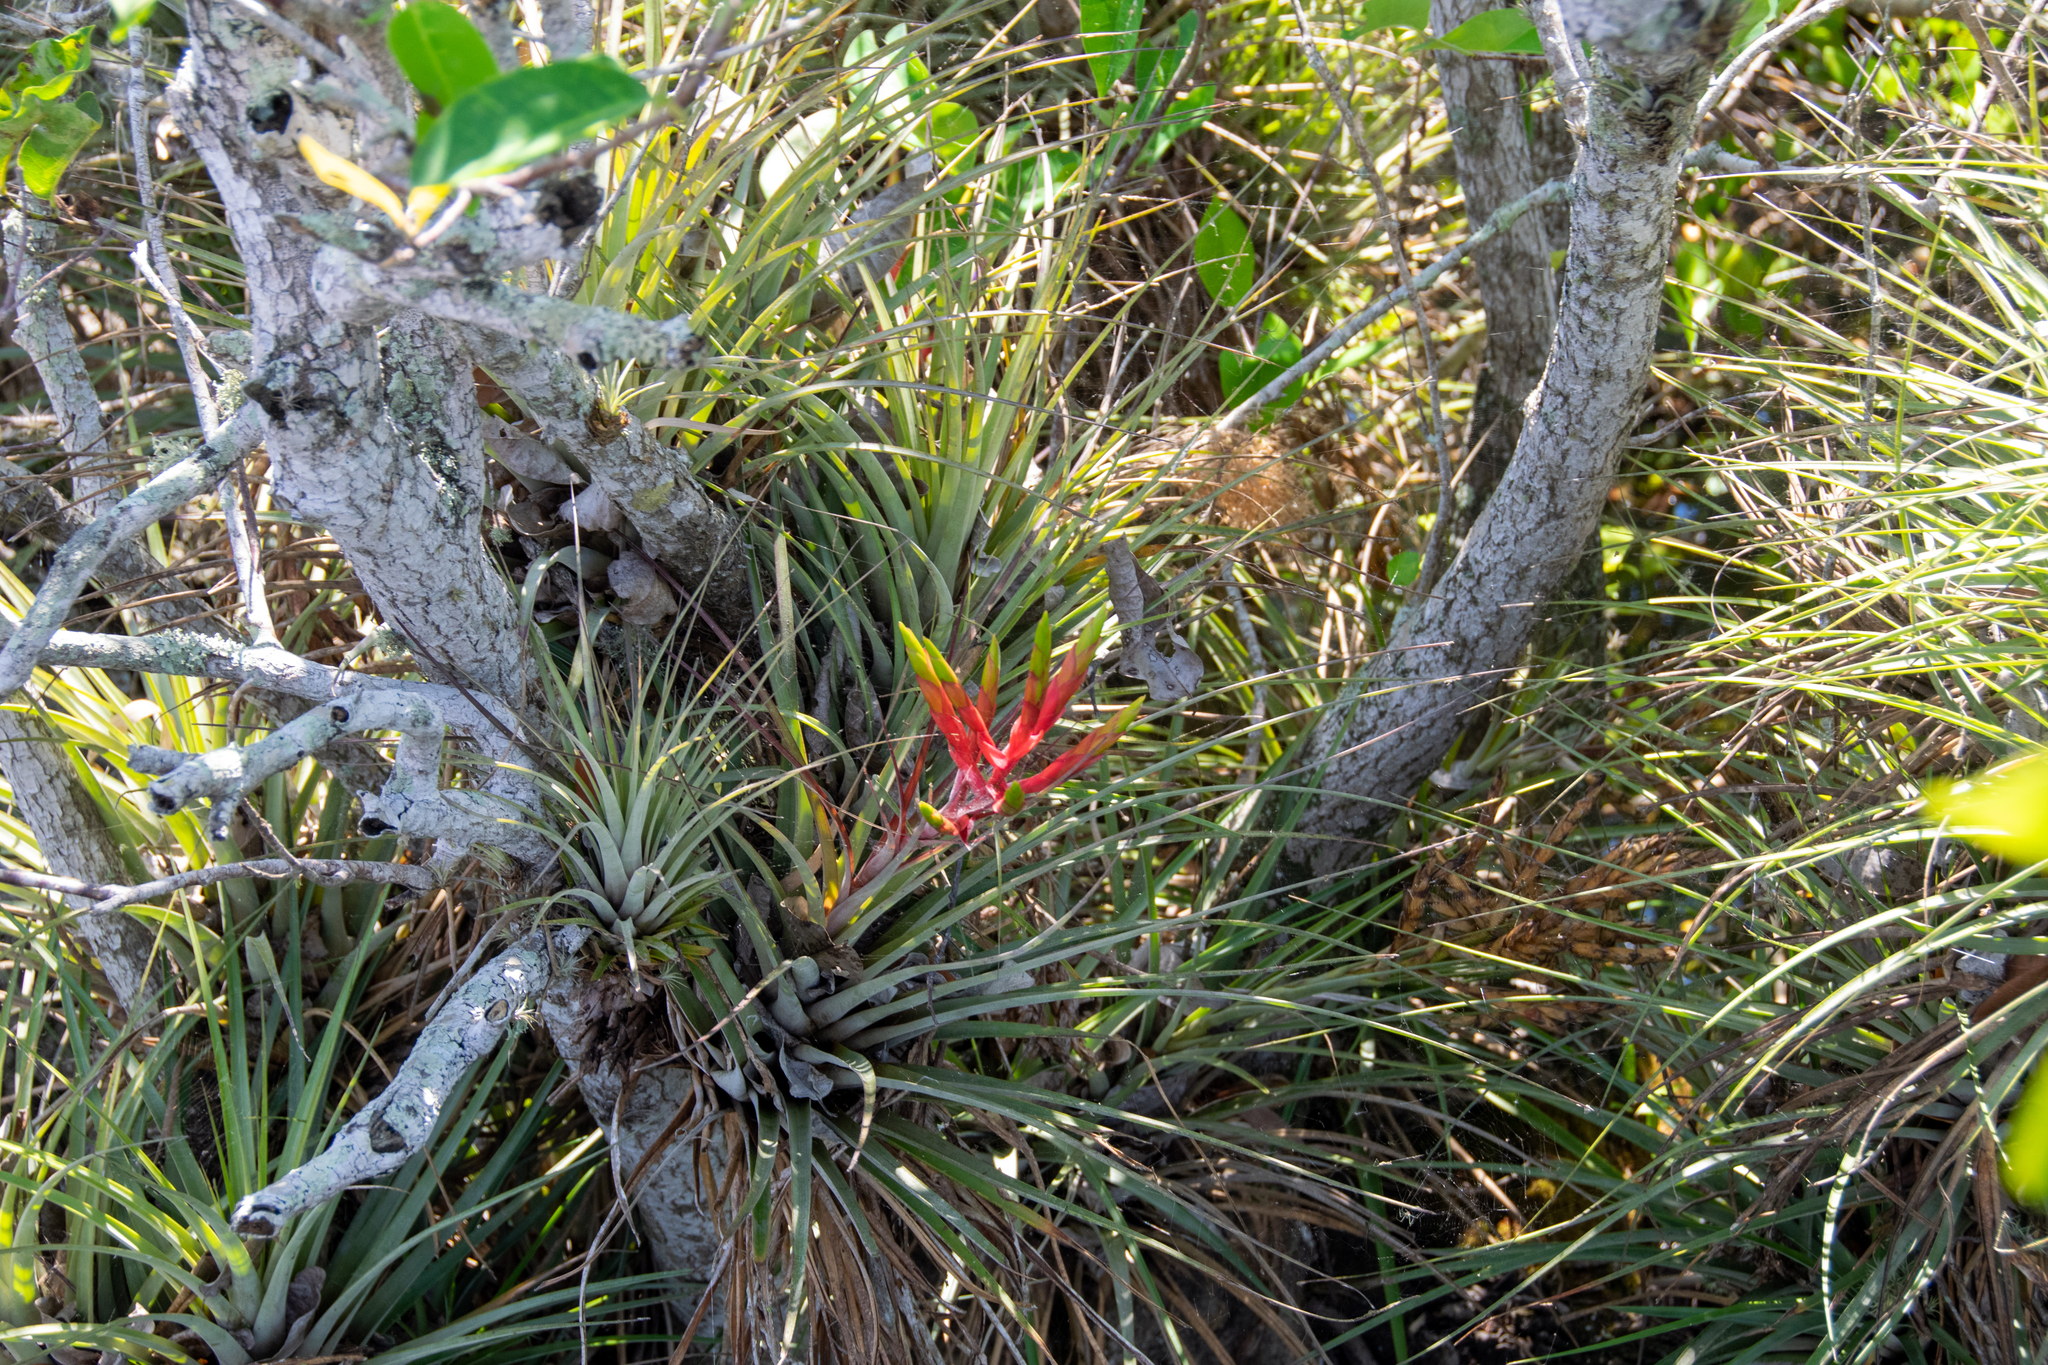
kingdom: Plantae
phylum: Tracheophyta
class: Liliopsida
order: Poales
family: Bromeliaceae
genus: Tillandsia
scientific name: Tillandsia fasciculata
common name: Giant airplant
